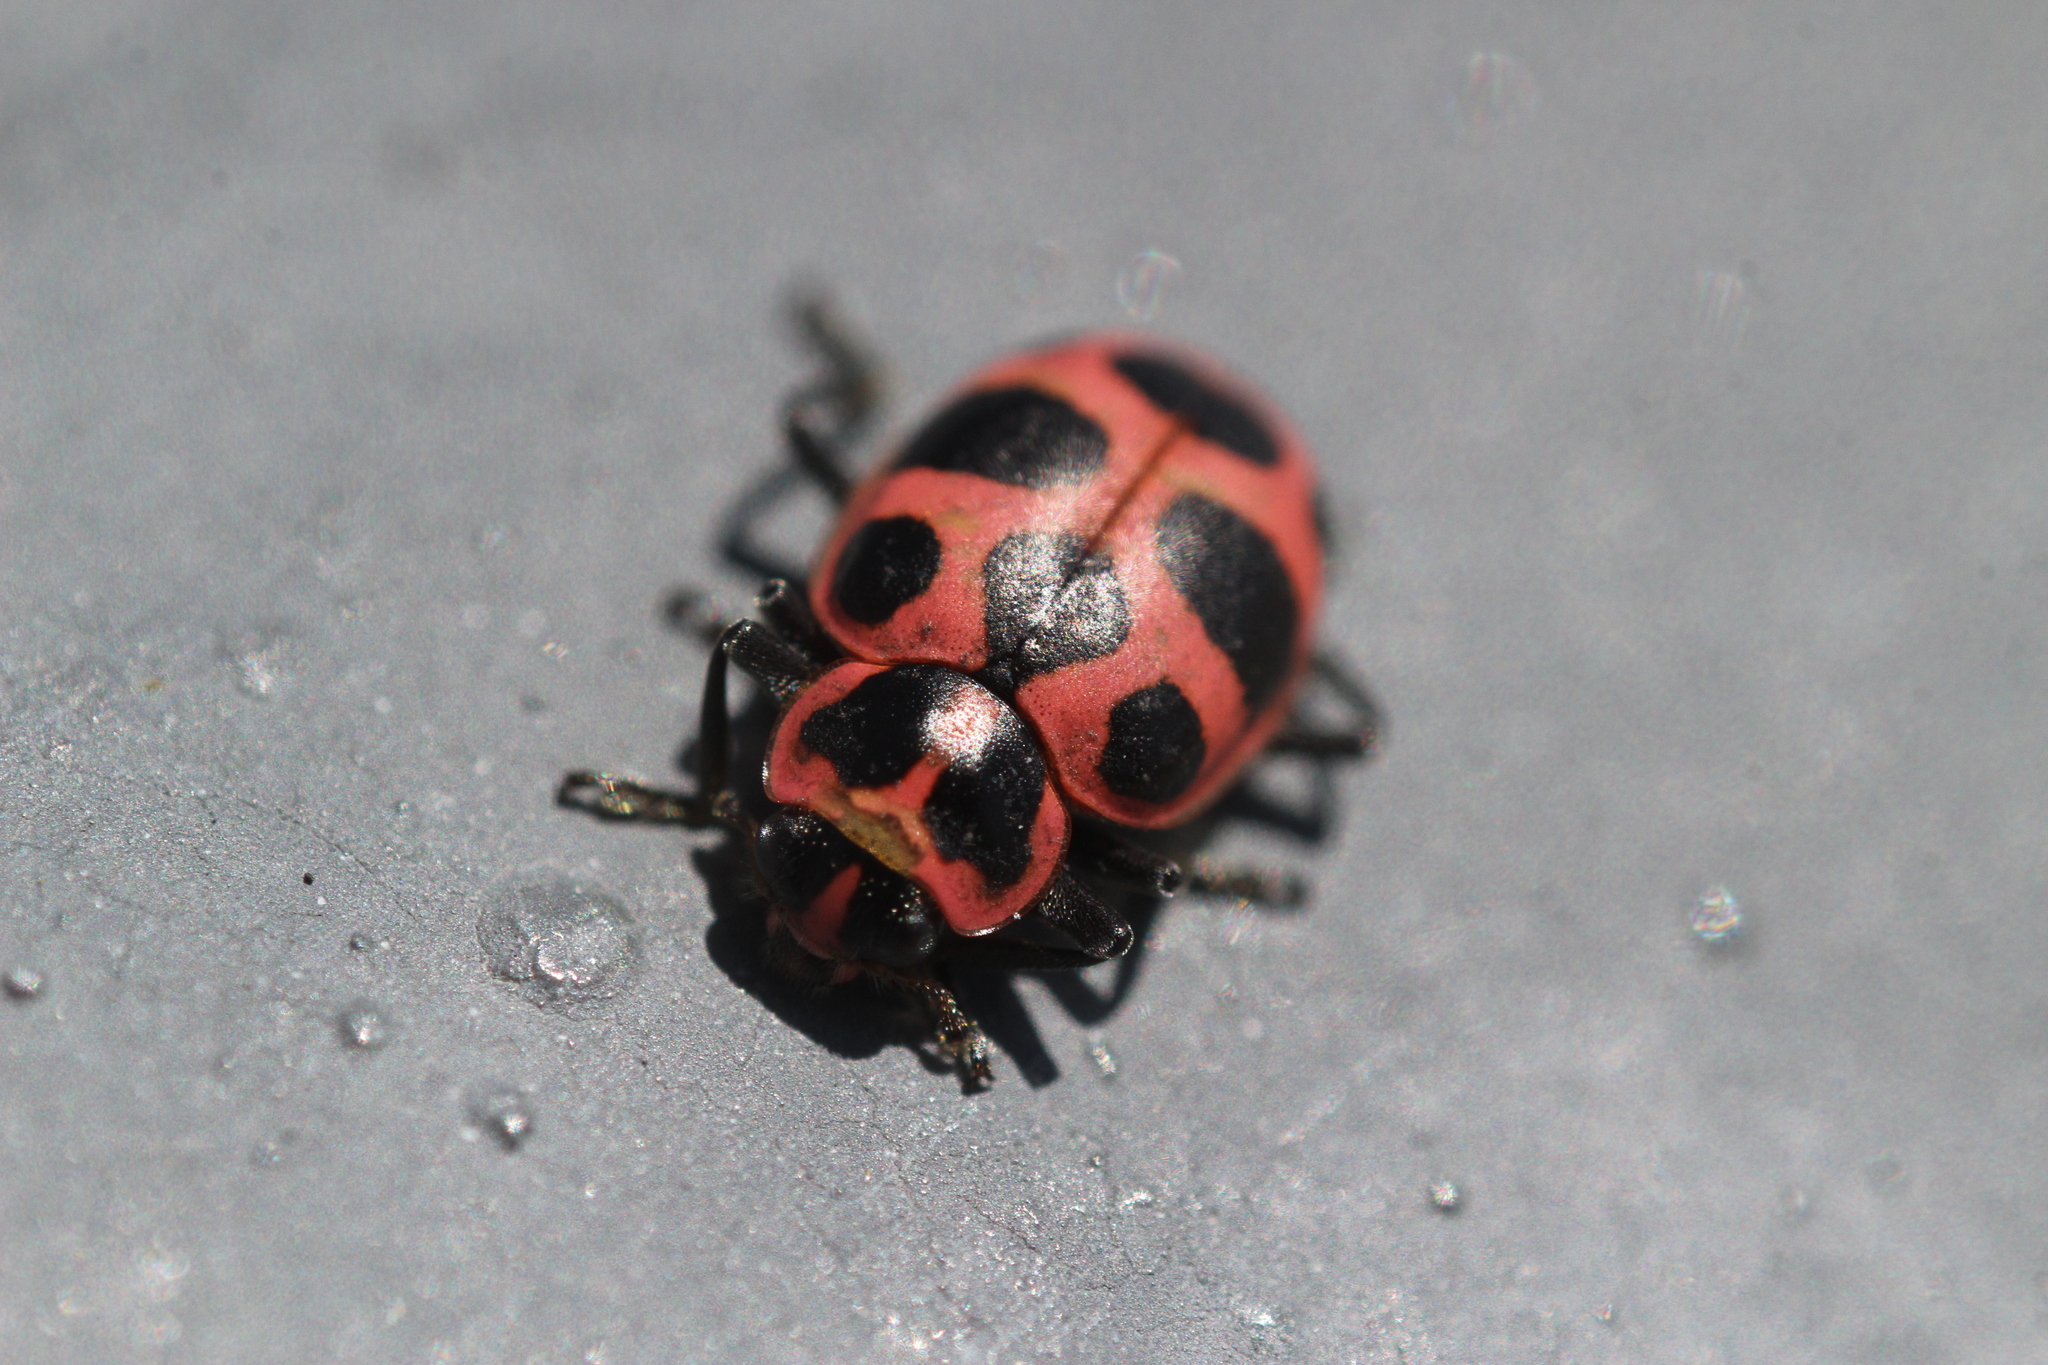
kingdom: Animalia
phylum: Arthropoda
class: Insecta
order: Coleoptera
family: Coccinellidae
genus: Coleomegilla
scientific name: Coleomegilla maculata
